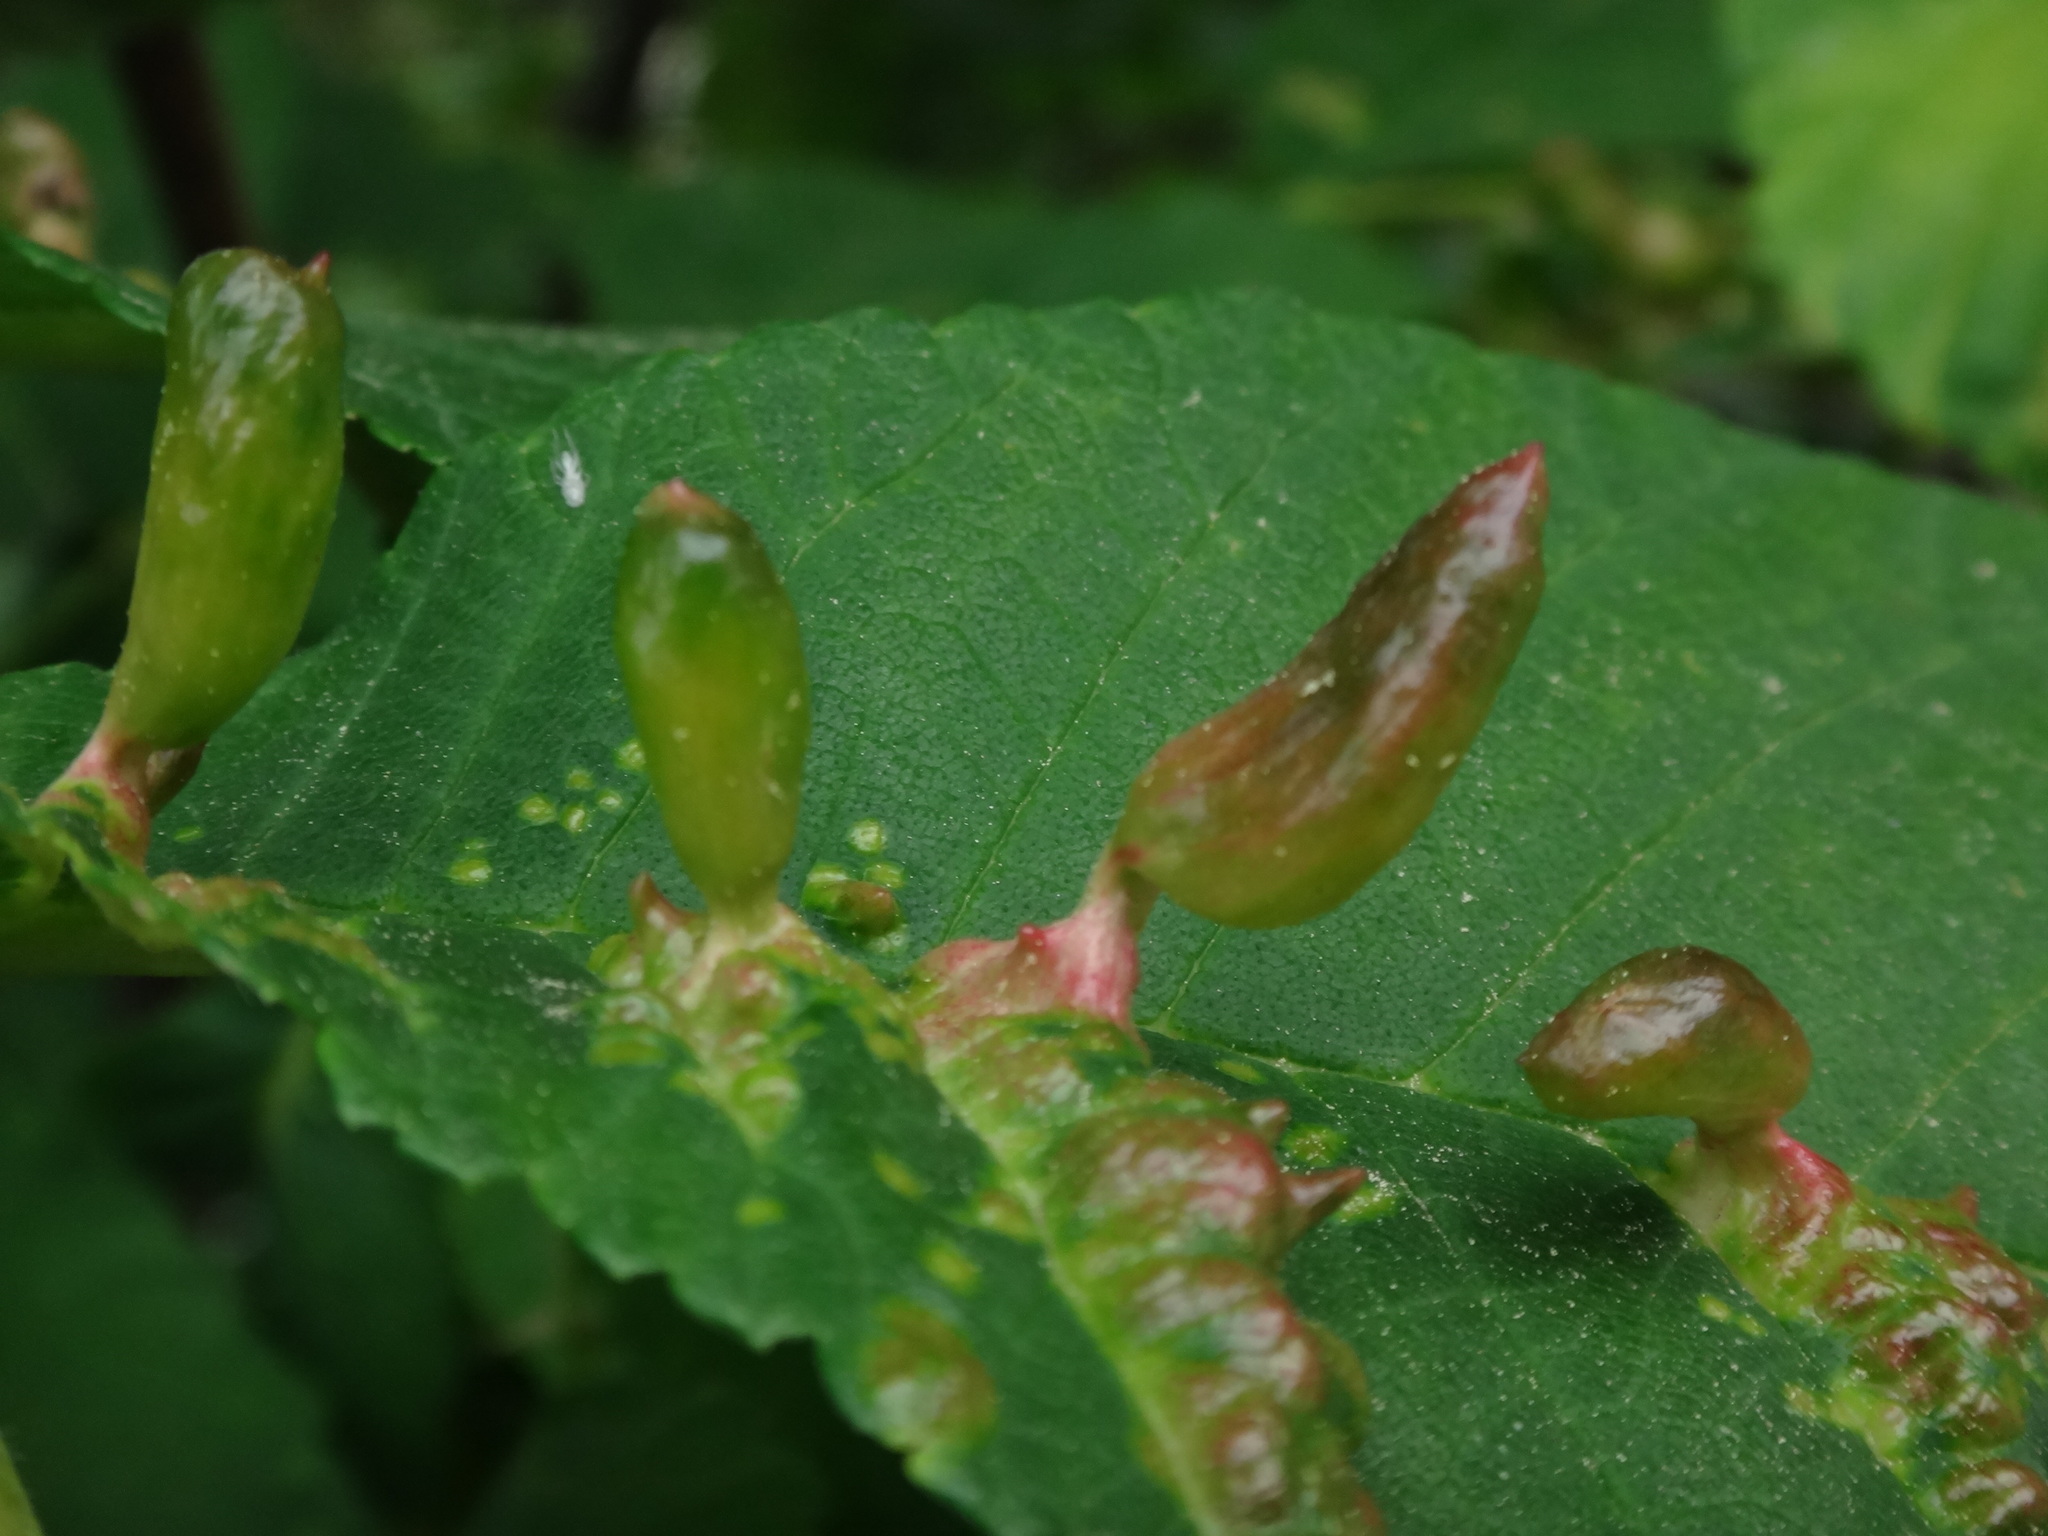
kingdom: Animalia
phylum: Arthropoda
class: Insecta
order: Hemiptera
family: Aphididae
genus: Tetraneura
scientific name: Tetraneura ulmi
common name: Aphid
